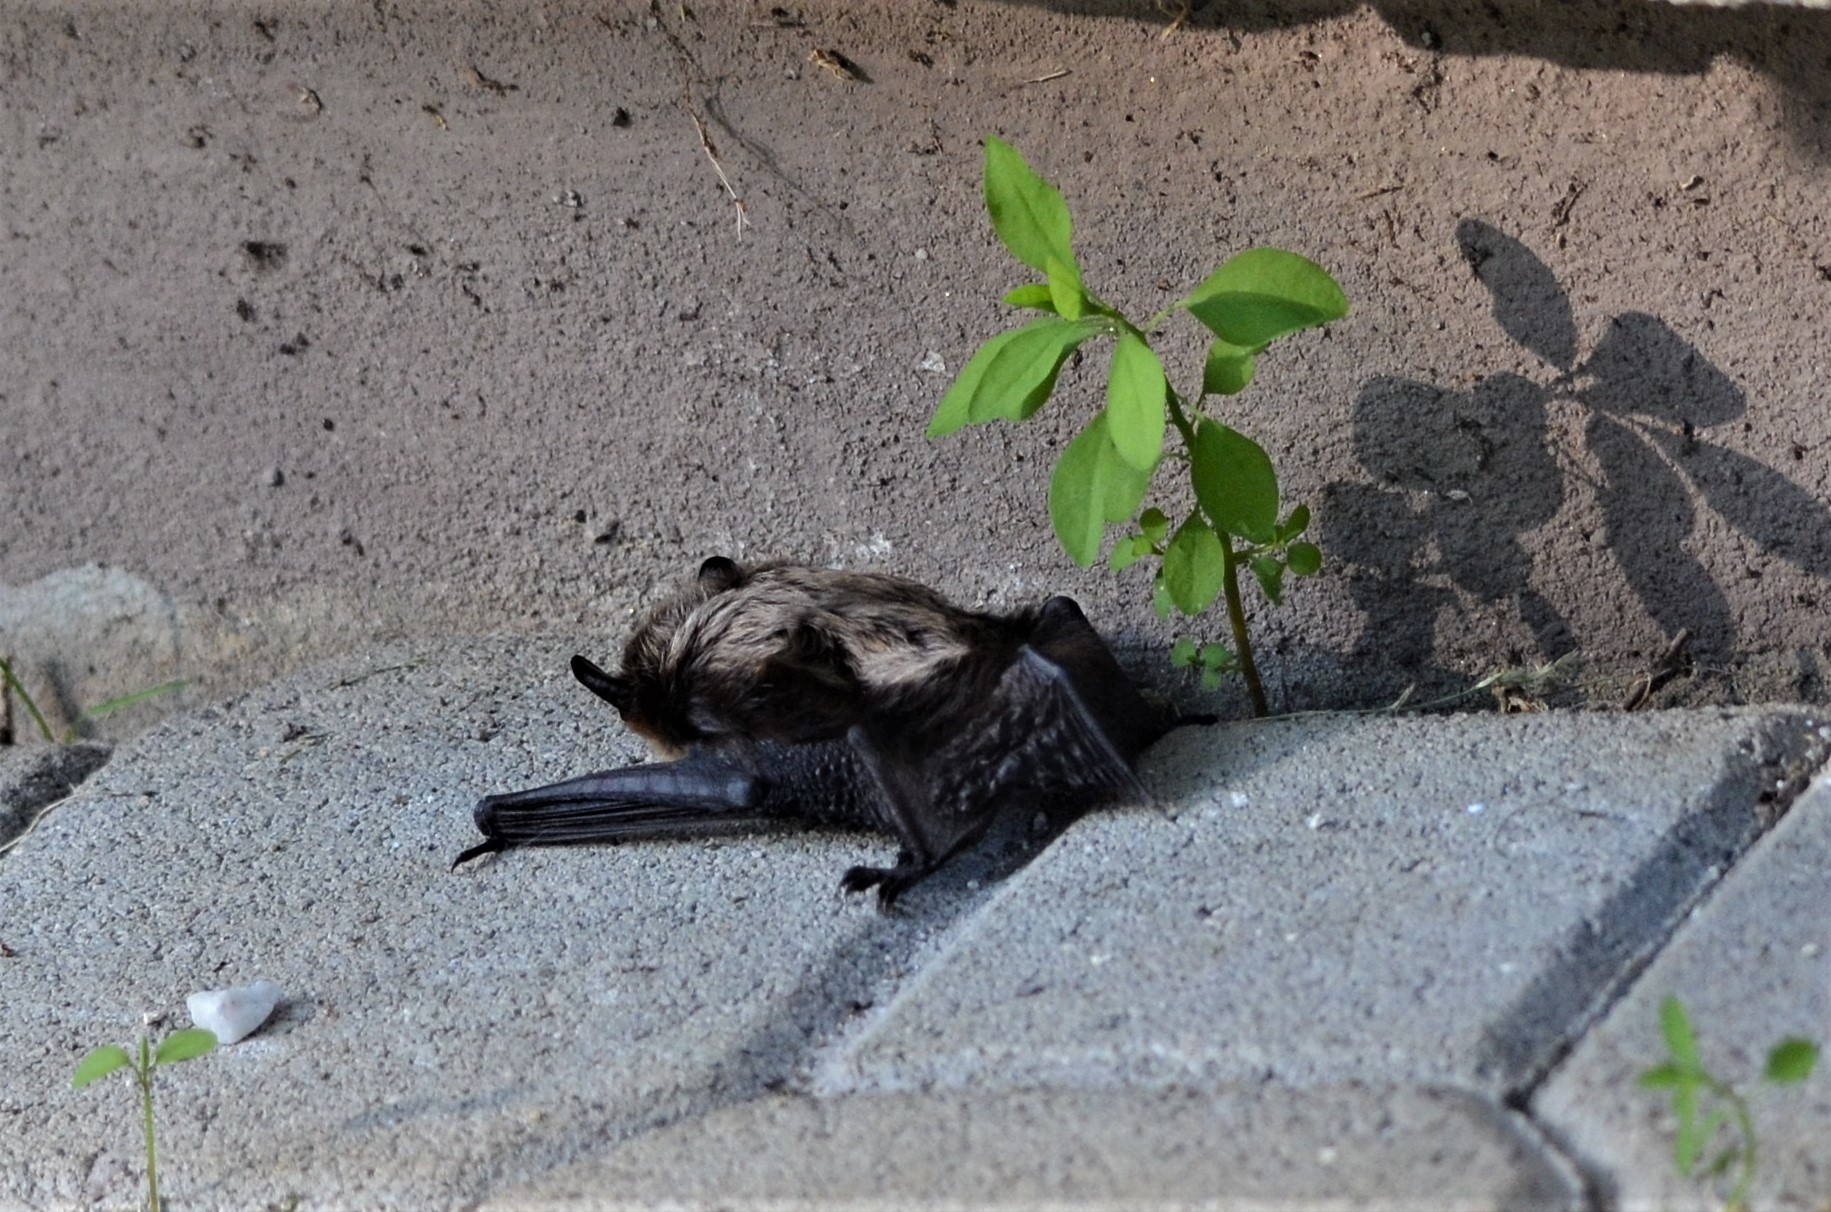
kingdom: Animalia
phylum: Chordata
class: Mammalia
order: Chiroptera
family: Vespertilionidae
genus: Eptesicus
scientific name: Eptesicus nilssonii
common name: Northern bat
